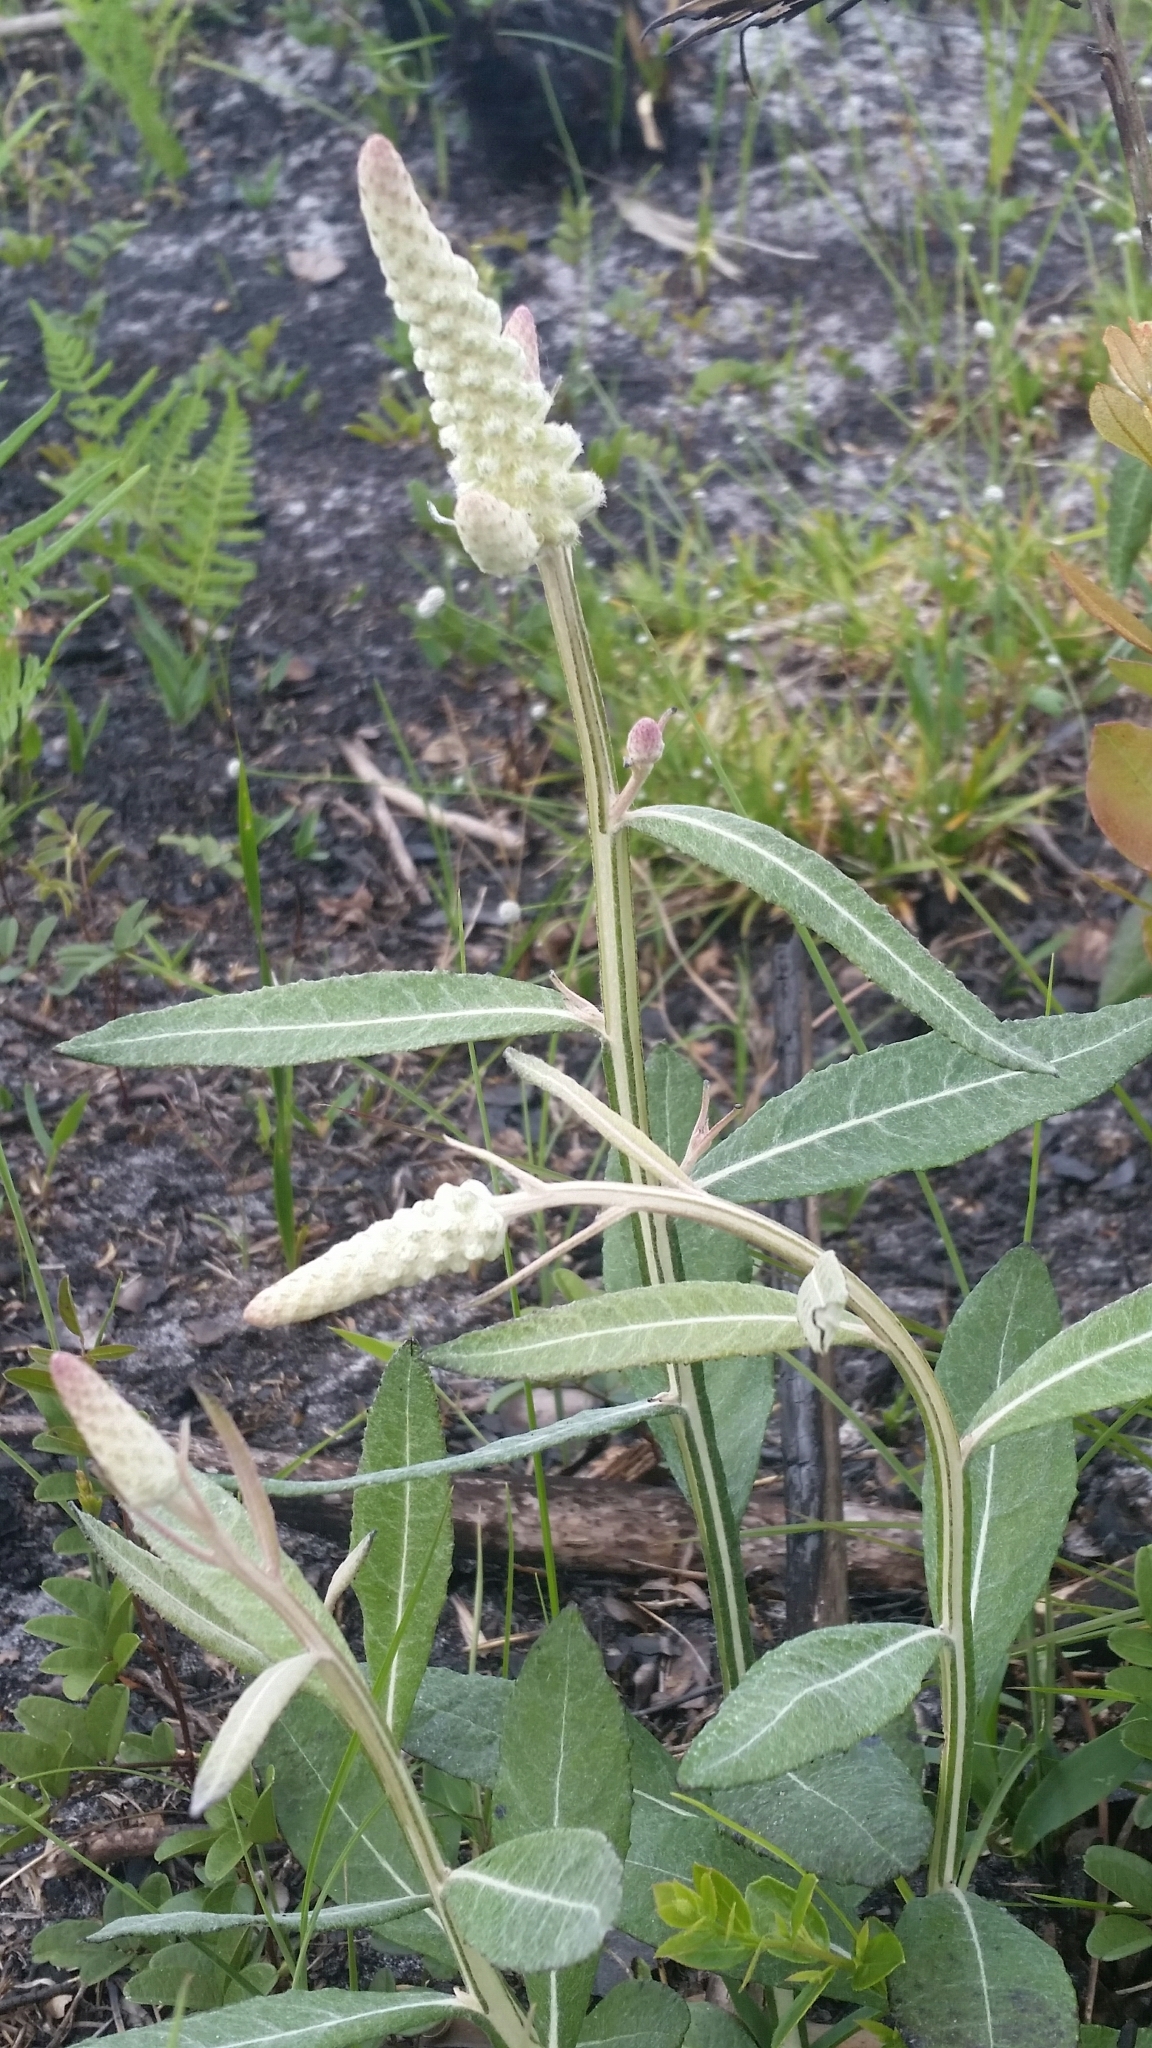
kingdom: Plantae
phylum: Tracheophyta
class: Magnoliopsida
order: Asterales
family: Asteraceae
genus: Pterocaulon
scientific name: Pterocaulon pycnostachyum
